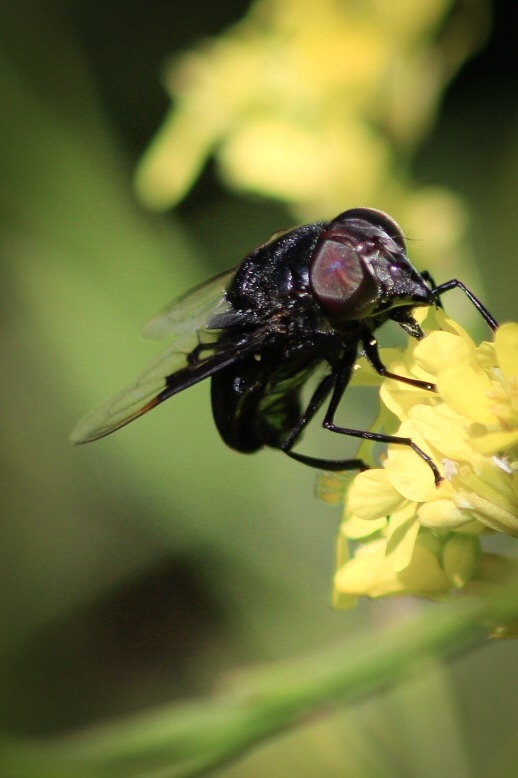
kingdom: Animalia
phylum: Arthropoda
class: Insecta
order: Diptera
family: Syrphidae
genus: Copestylum
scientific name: Copestylum mexicanum
